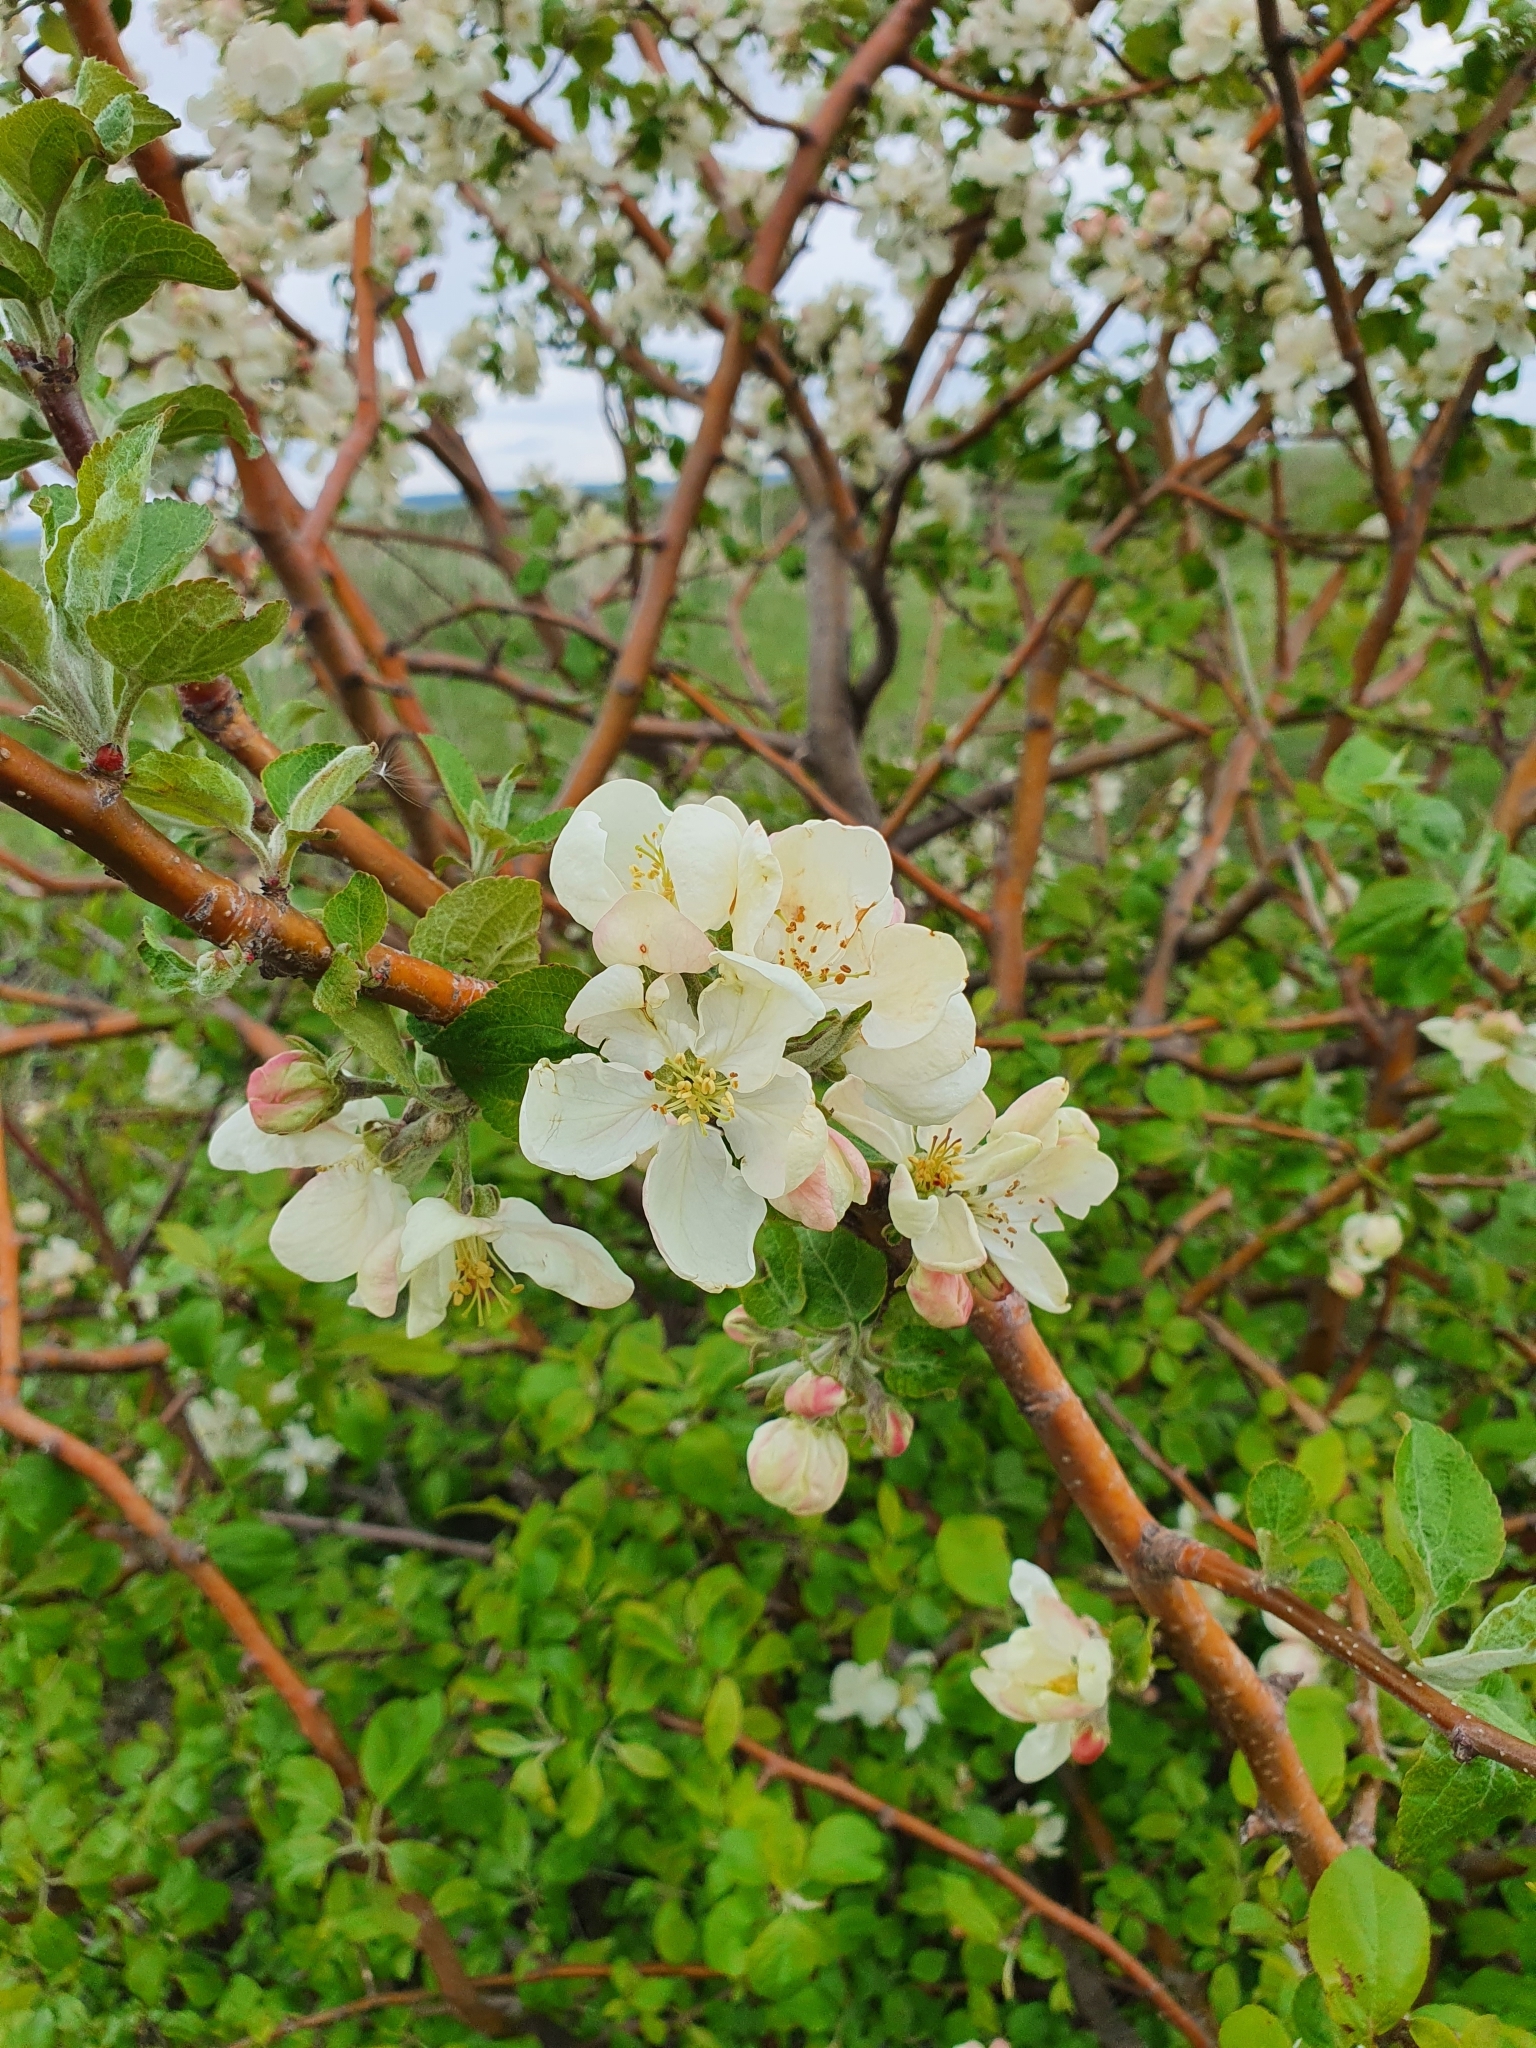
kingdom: Plantae
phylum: Tracheophyta
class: Magnoliopsida
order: Rosales
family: Rosaceae
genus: Malus
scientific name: Malus domestica
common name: Apple
